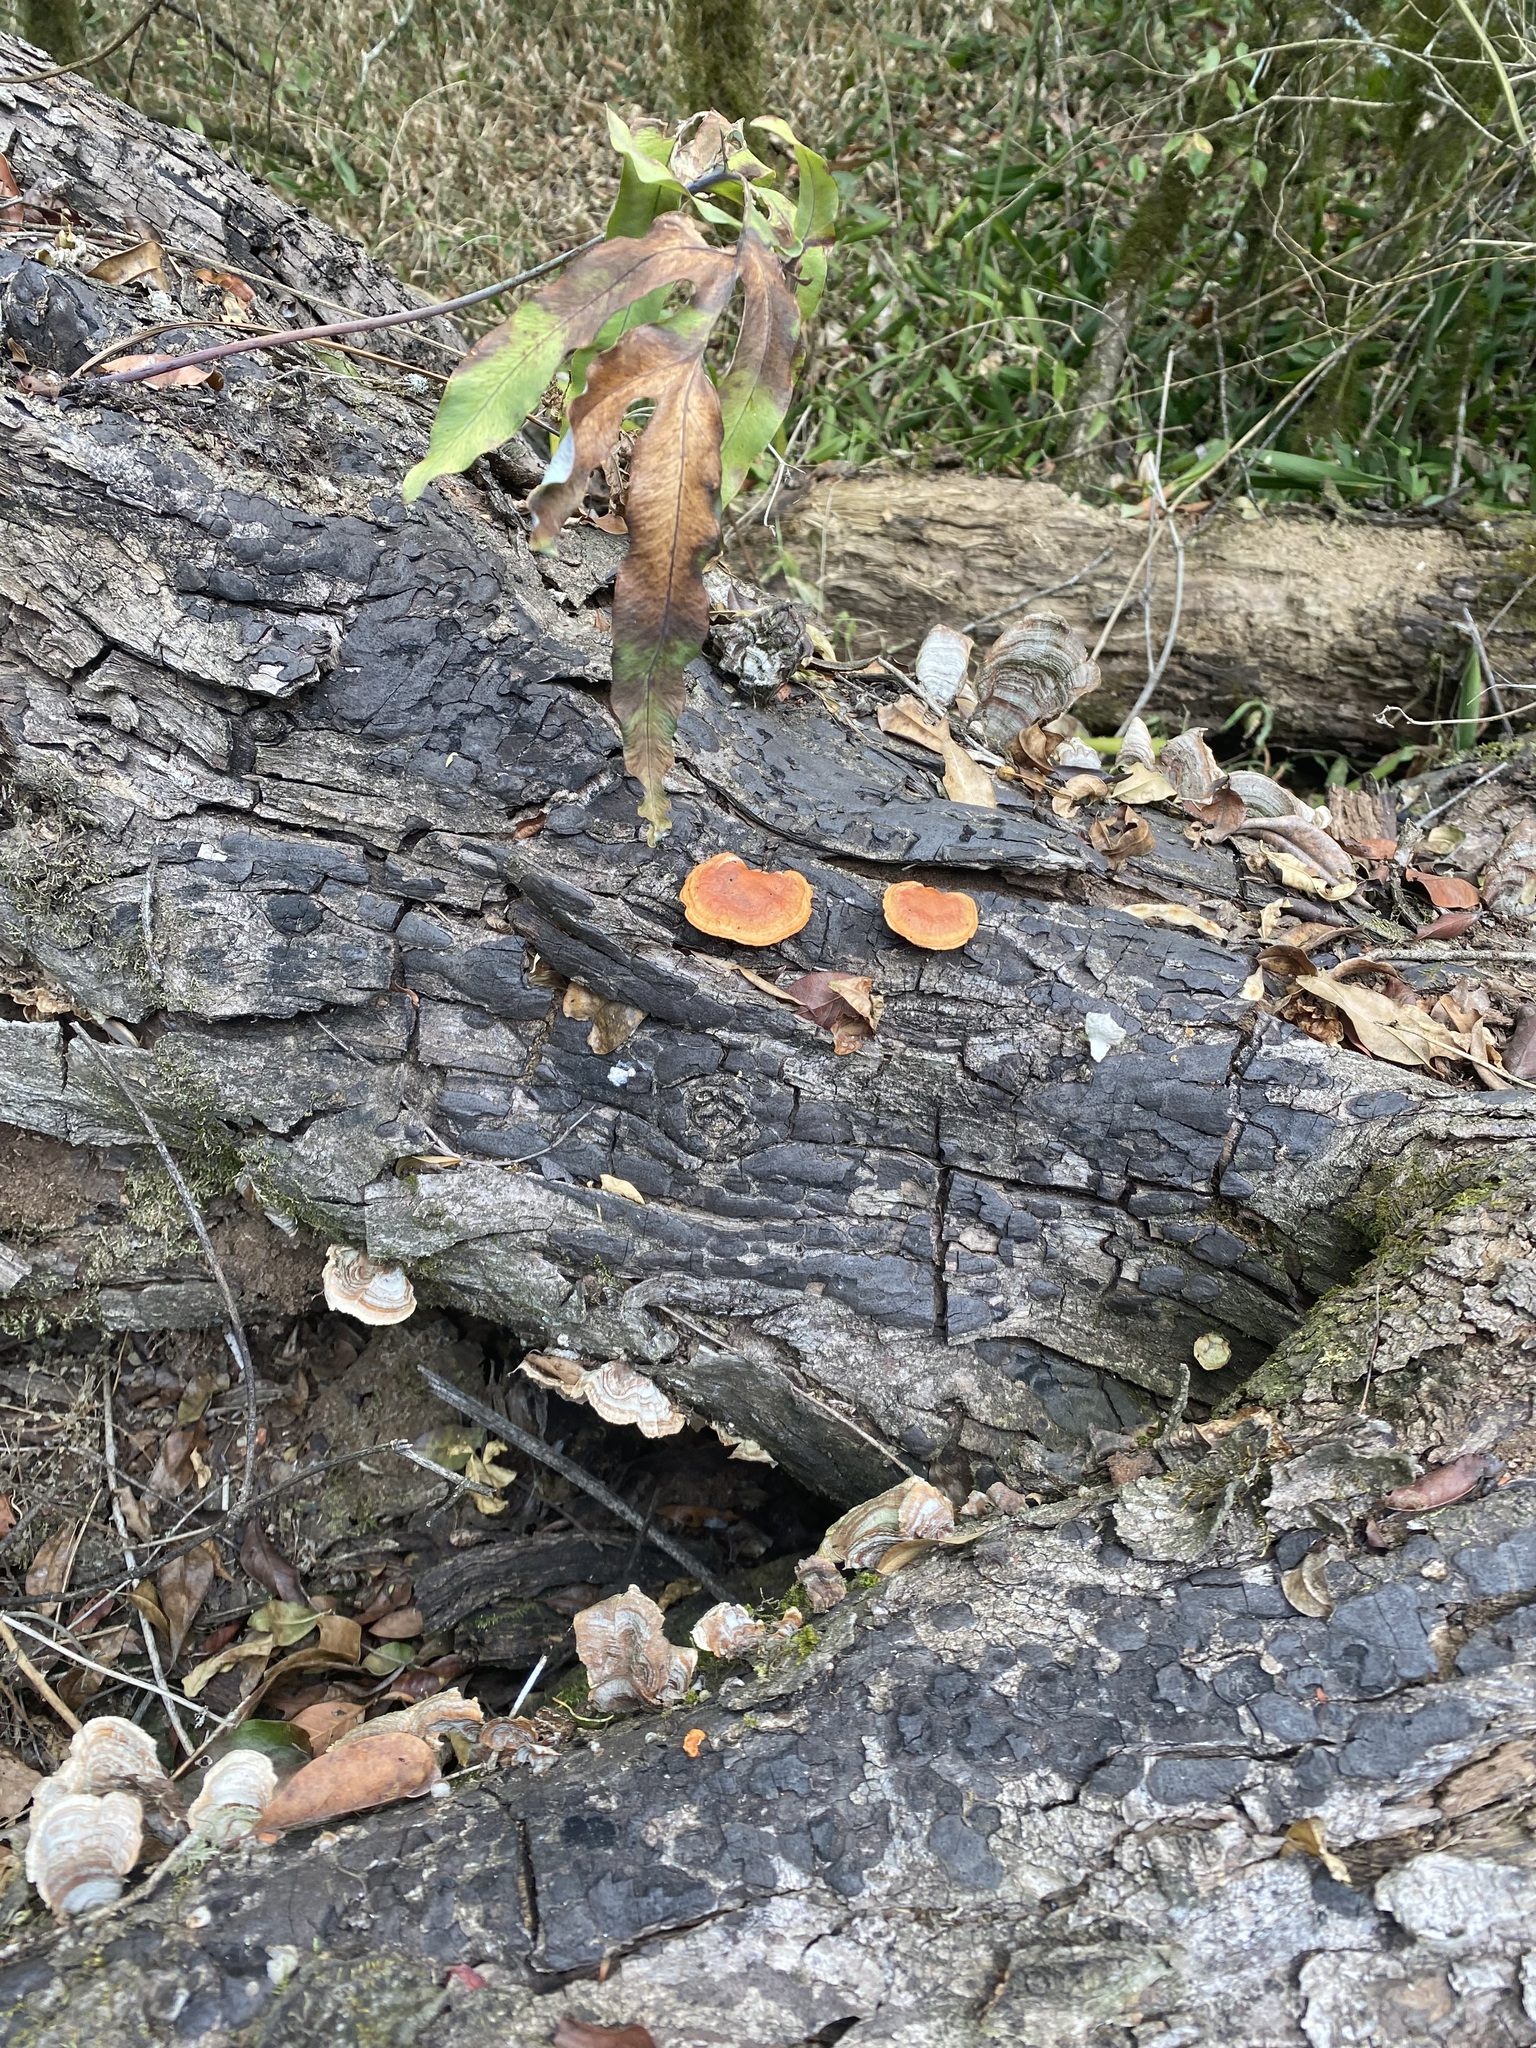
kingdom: Fungi
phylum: Basidiomycota
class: Agaricomycetes
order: Polyporales
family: Polyporaceae
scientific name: Polyporaceae
